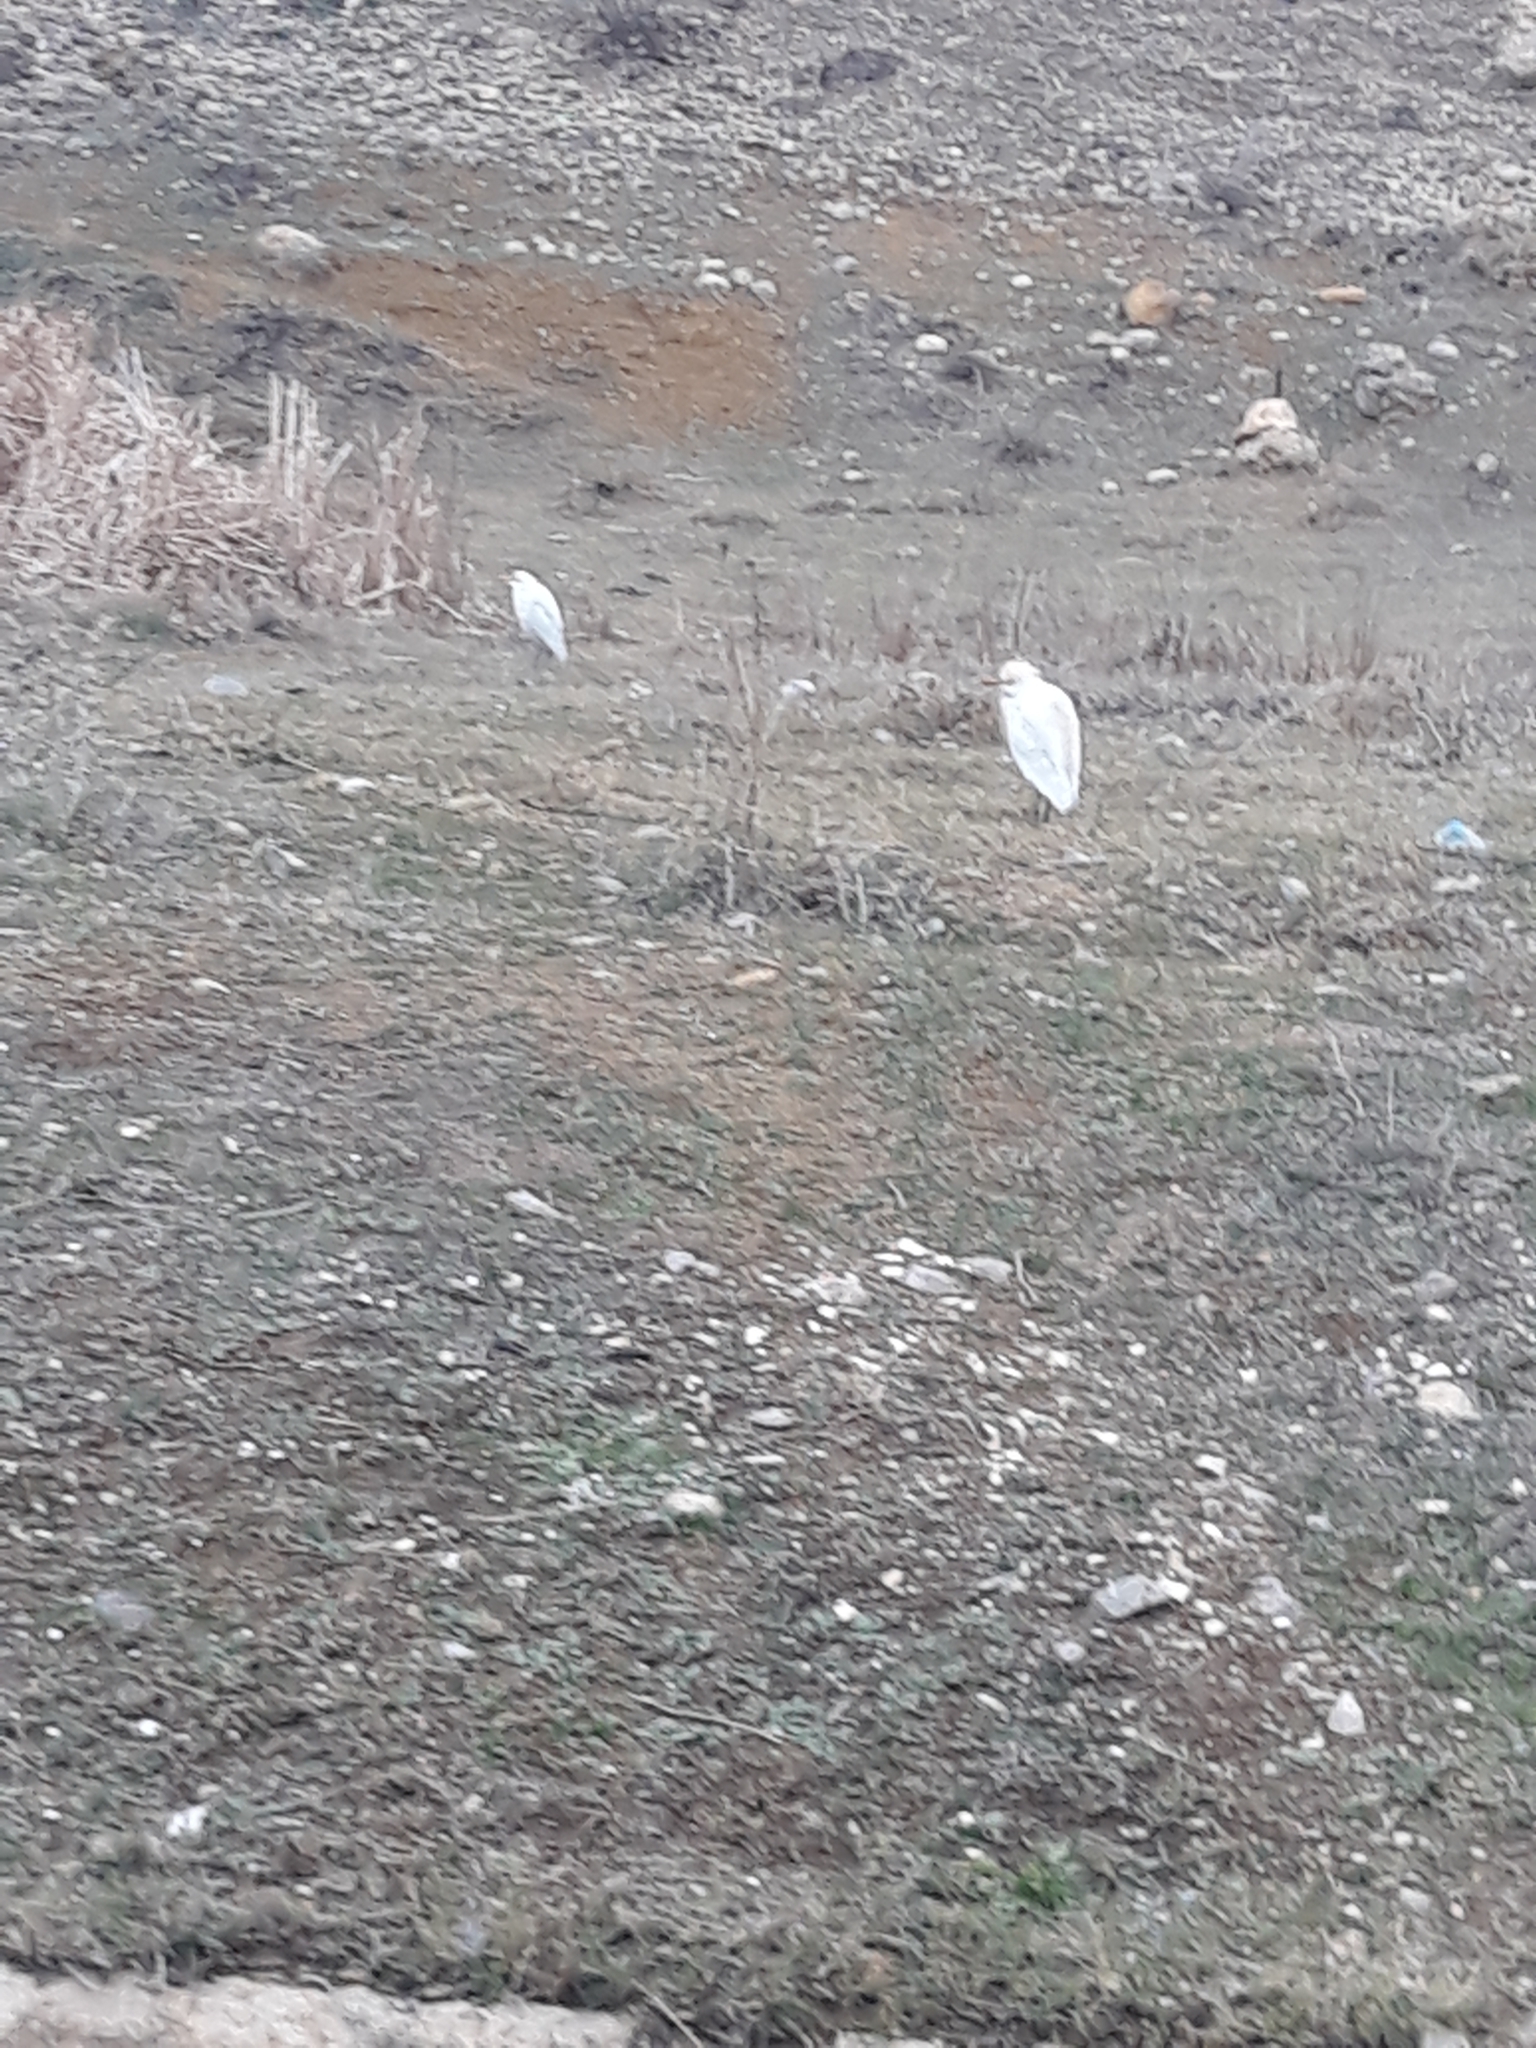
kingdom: Animalia
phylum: Chordata
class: Aves
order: Pelecaniformes
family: Ardeidae
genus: Bubulcus
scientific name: Bubulcus ibis
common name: Cattle egret
